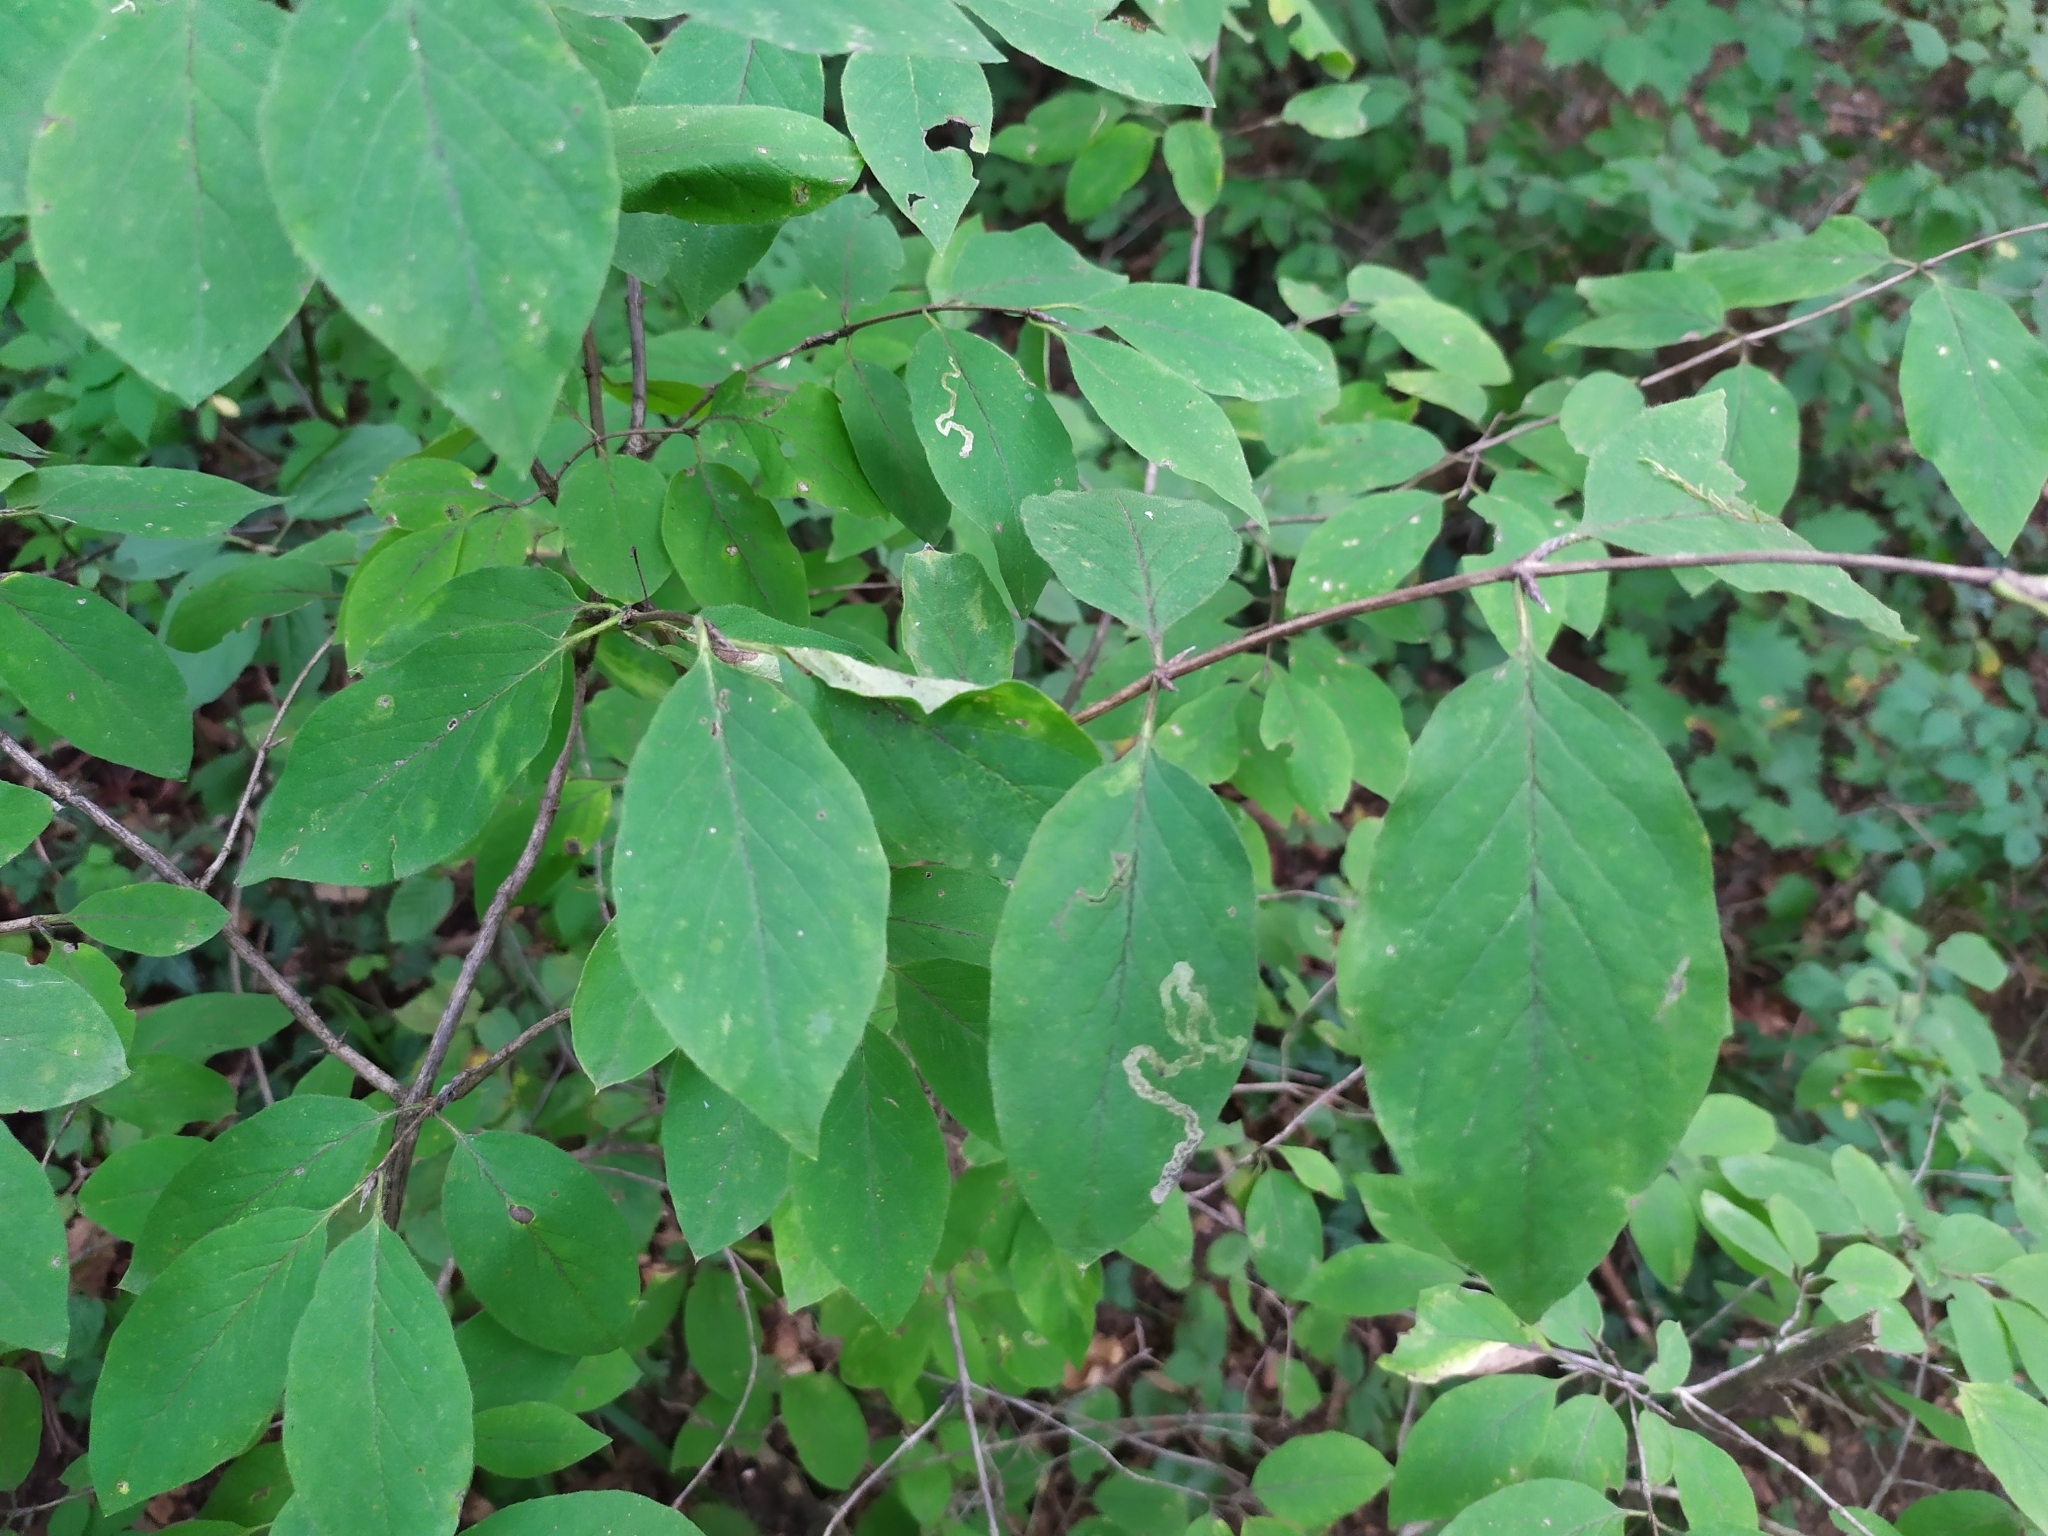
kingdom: Animalia
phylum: Arthropoda
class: Insecta
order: Diptera
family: Agromyzidae
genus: Aulagromyza
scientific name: Aulagromyza luteoscutellata
